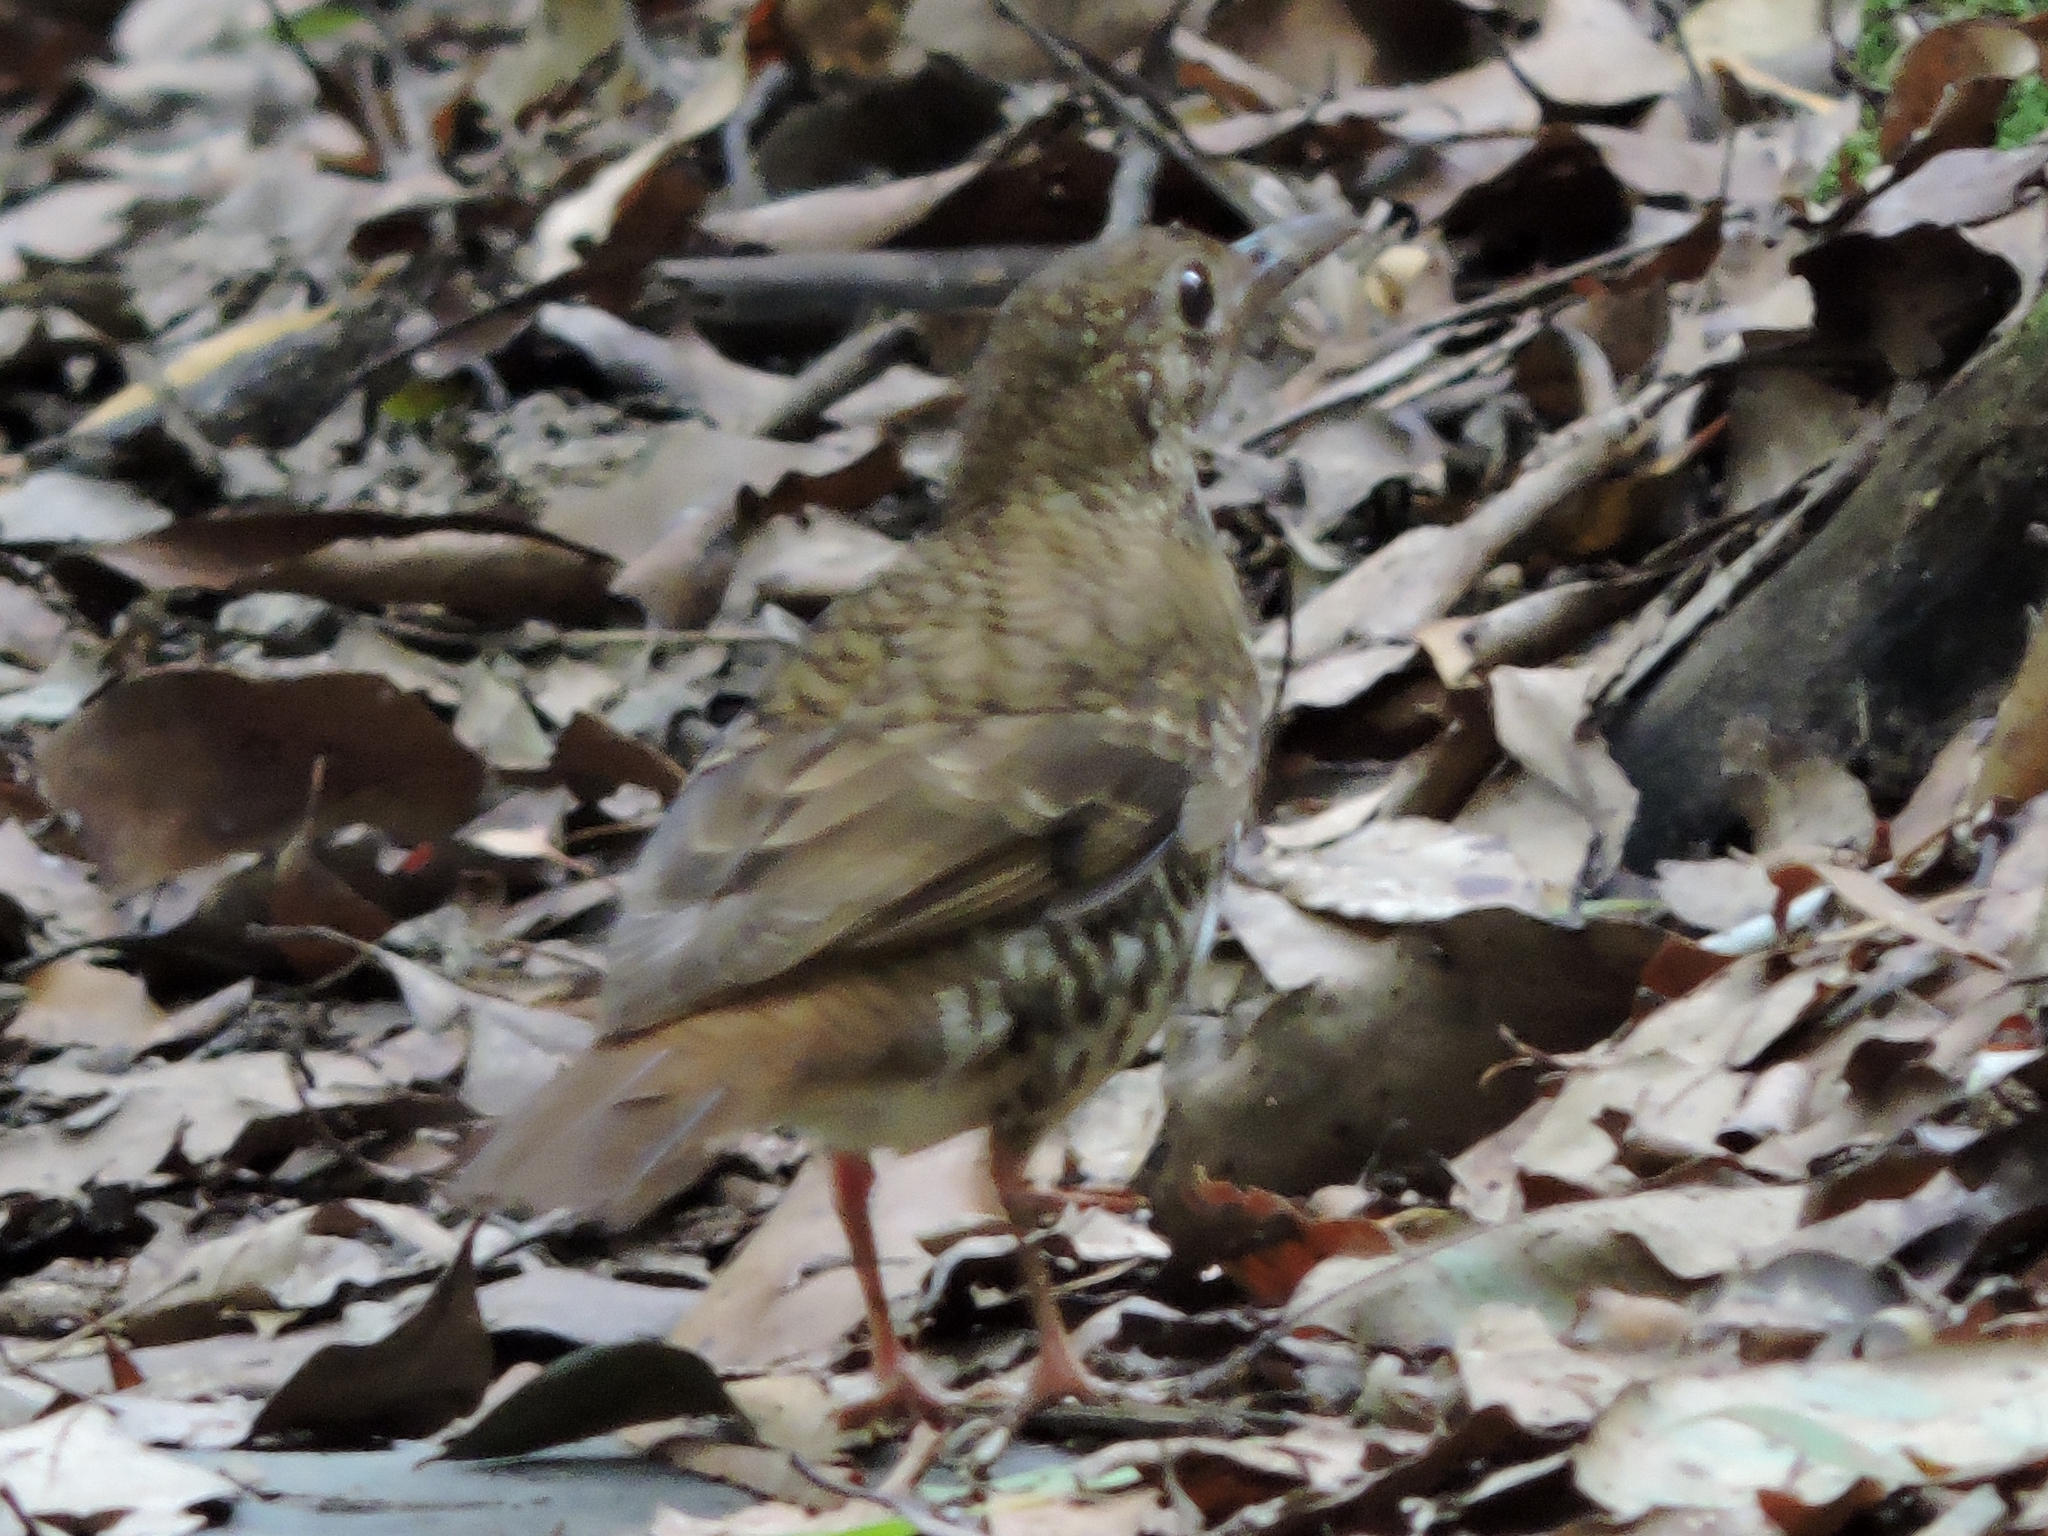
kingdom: Animalia
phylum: Chordata
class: Aves
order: Passeriformes
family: Turdidae
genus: Zoothera
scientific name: Zoothera heinei
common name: Russet-tailed thrush
